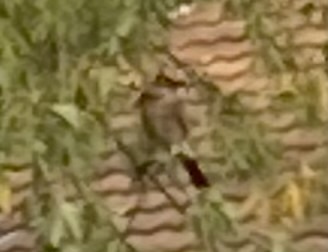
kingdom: Animalia
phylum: Chordata
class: Aves
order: Passeriformes
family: Corvidae
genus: Garrulus
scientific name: Garrulus glandarius
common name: Eurasian jay
